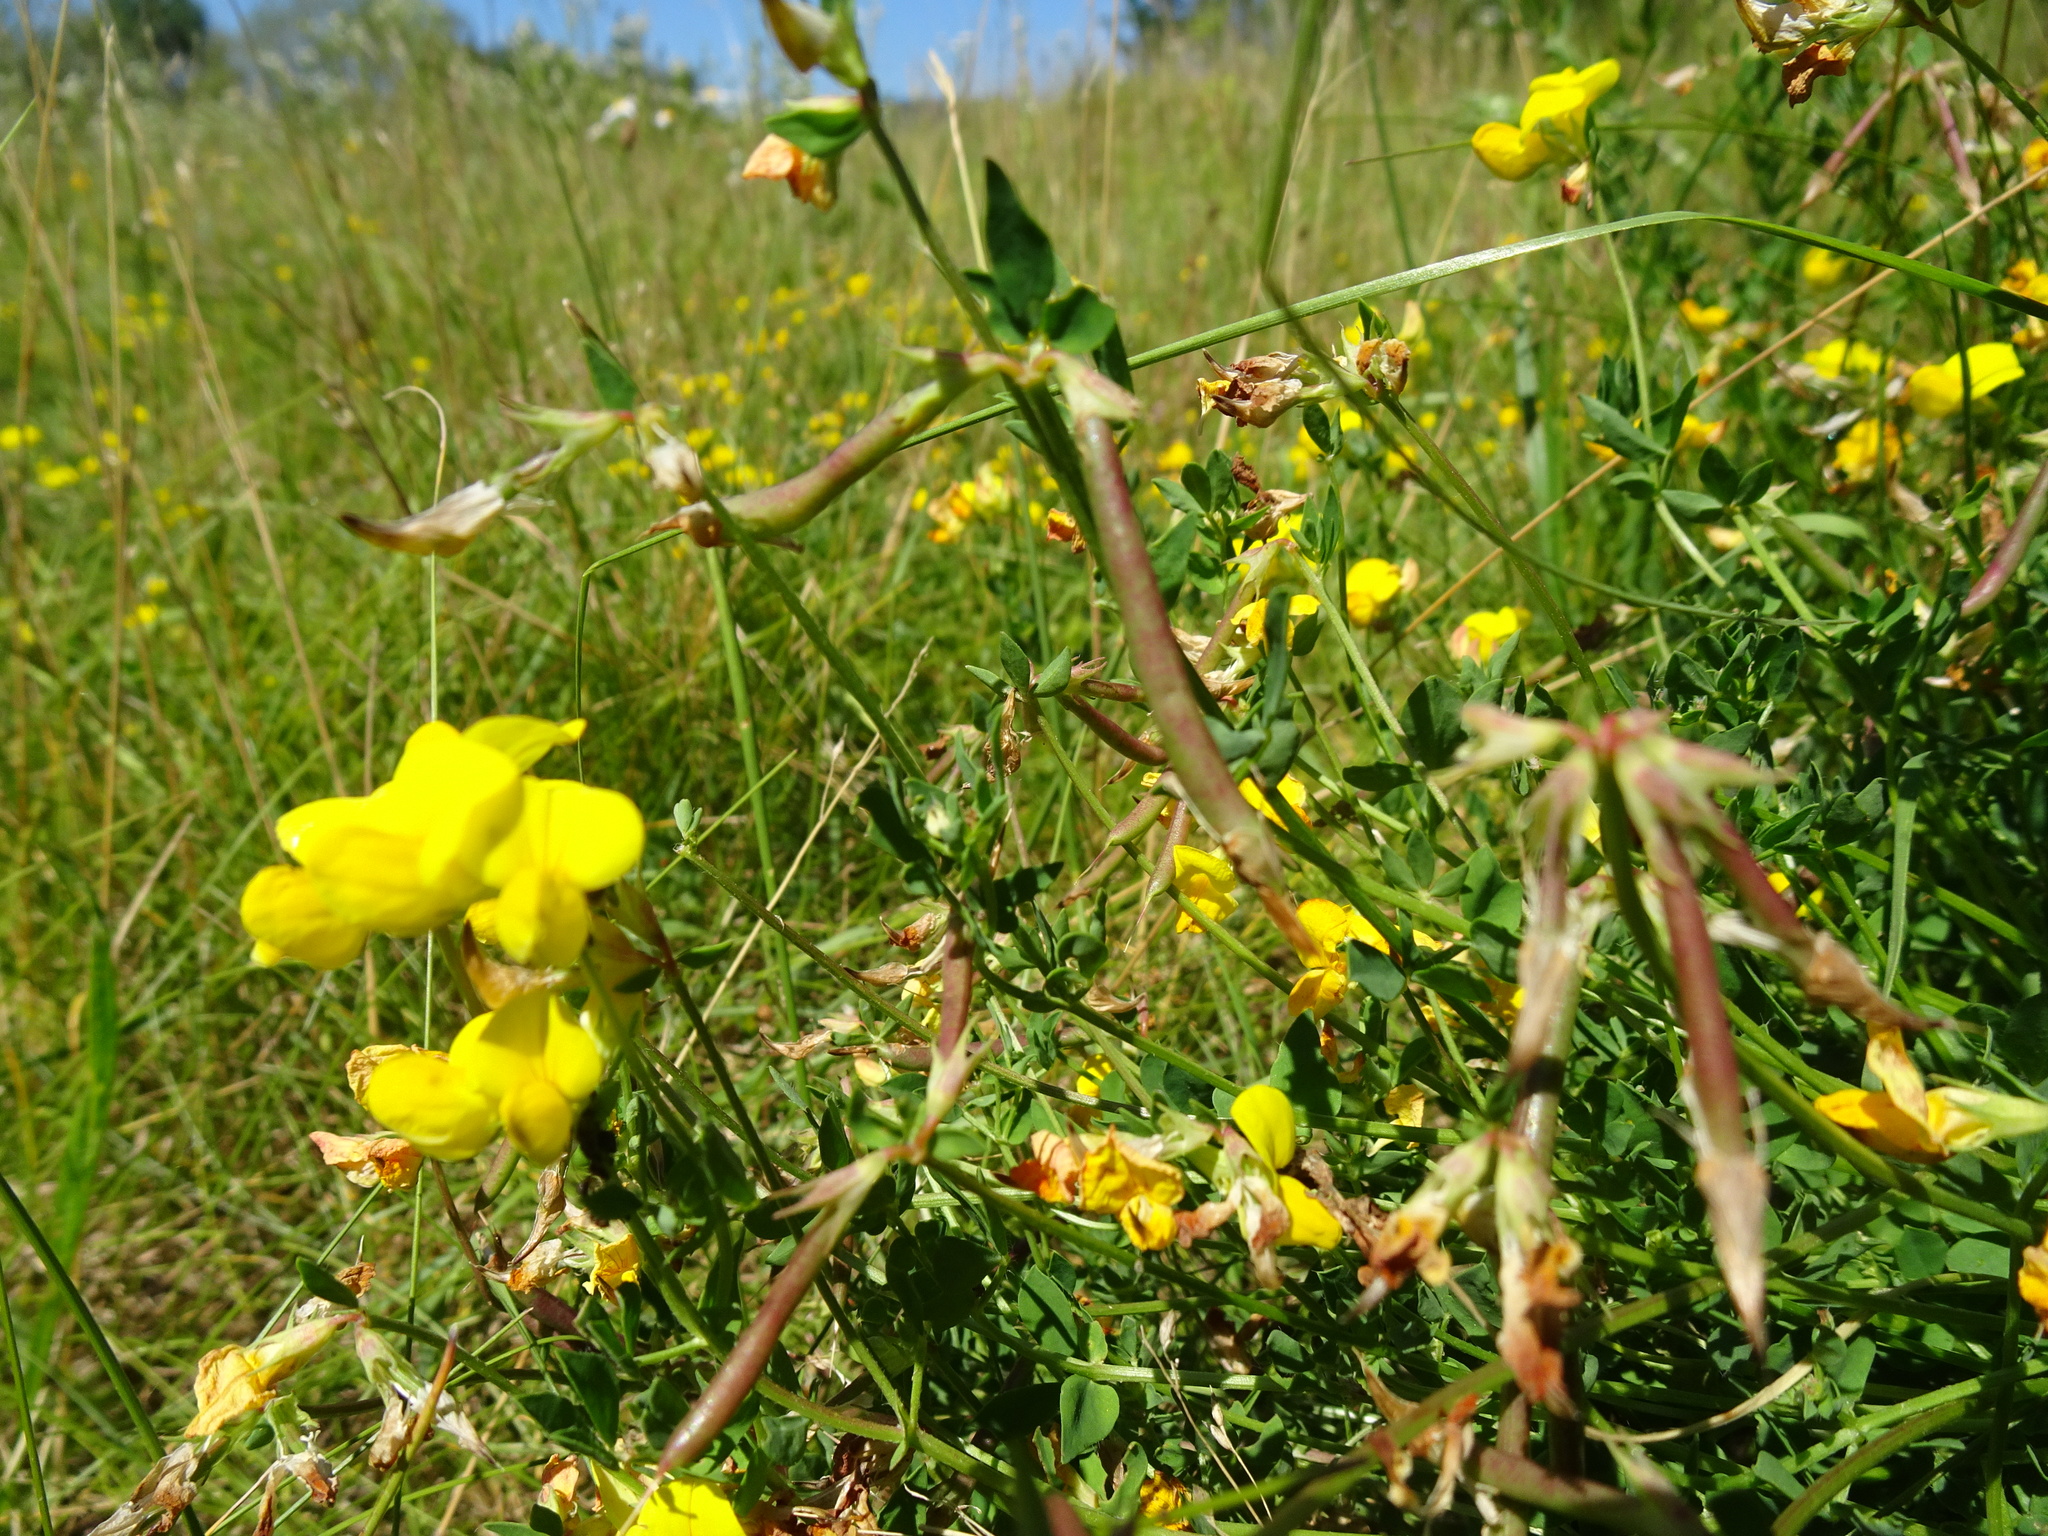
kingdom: Plantae
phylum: Tracheophyta
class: Magnoliopsida
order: Fabales
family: Fabaceae
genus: Lotus
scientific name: Lotus corniculatus
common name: Common bird's-foot-trefoil
